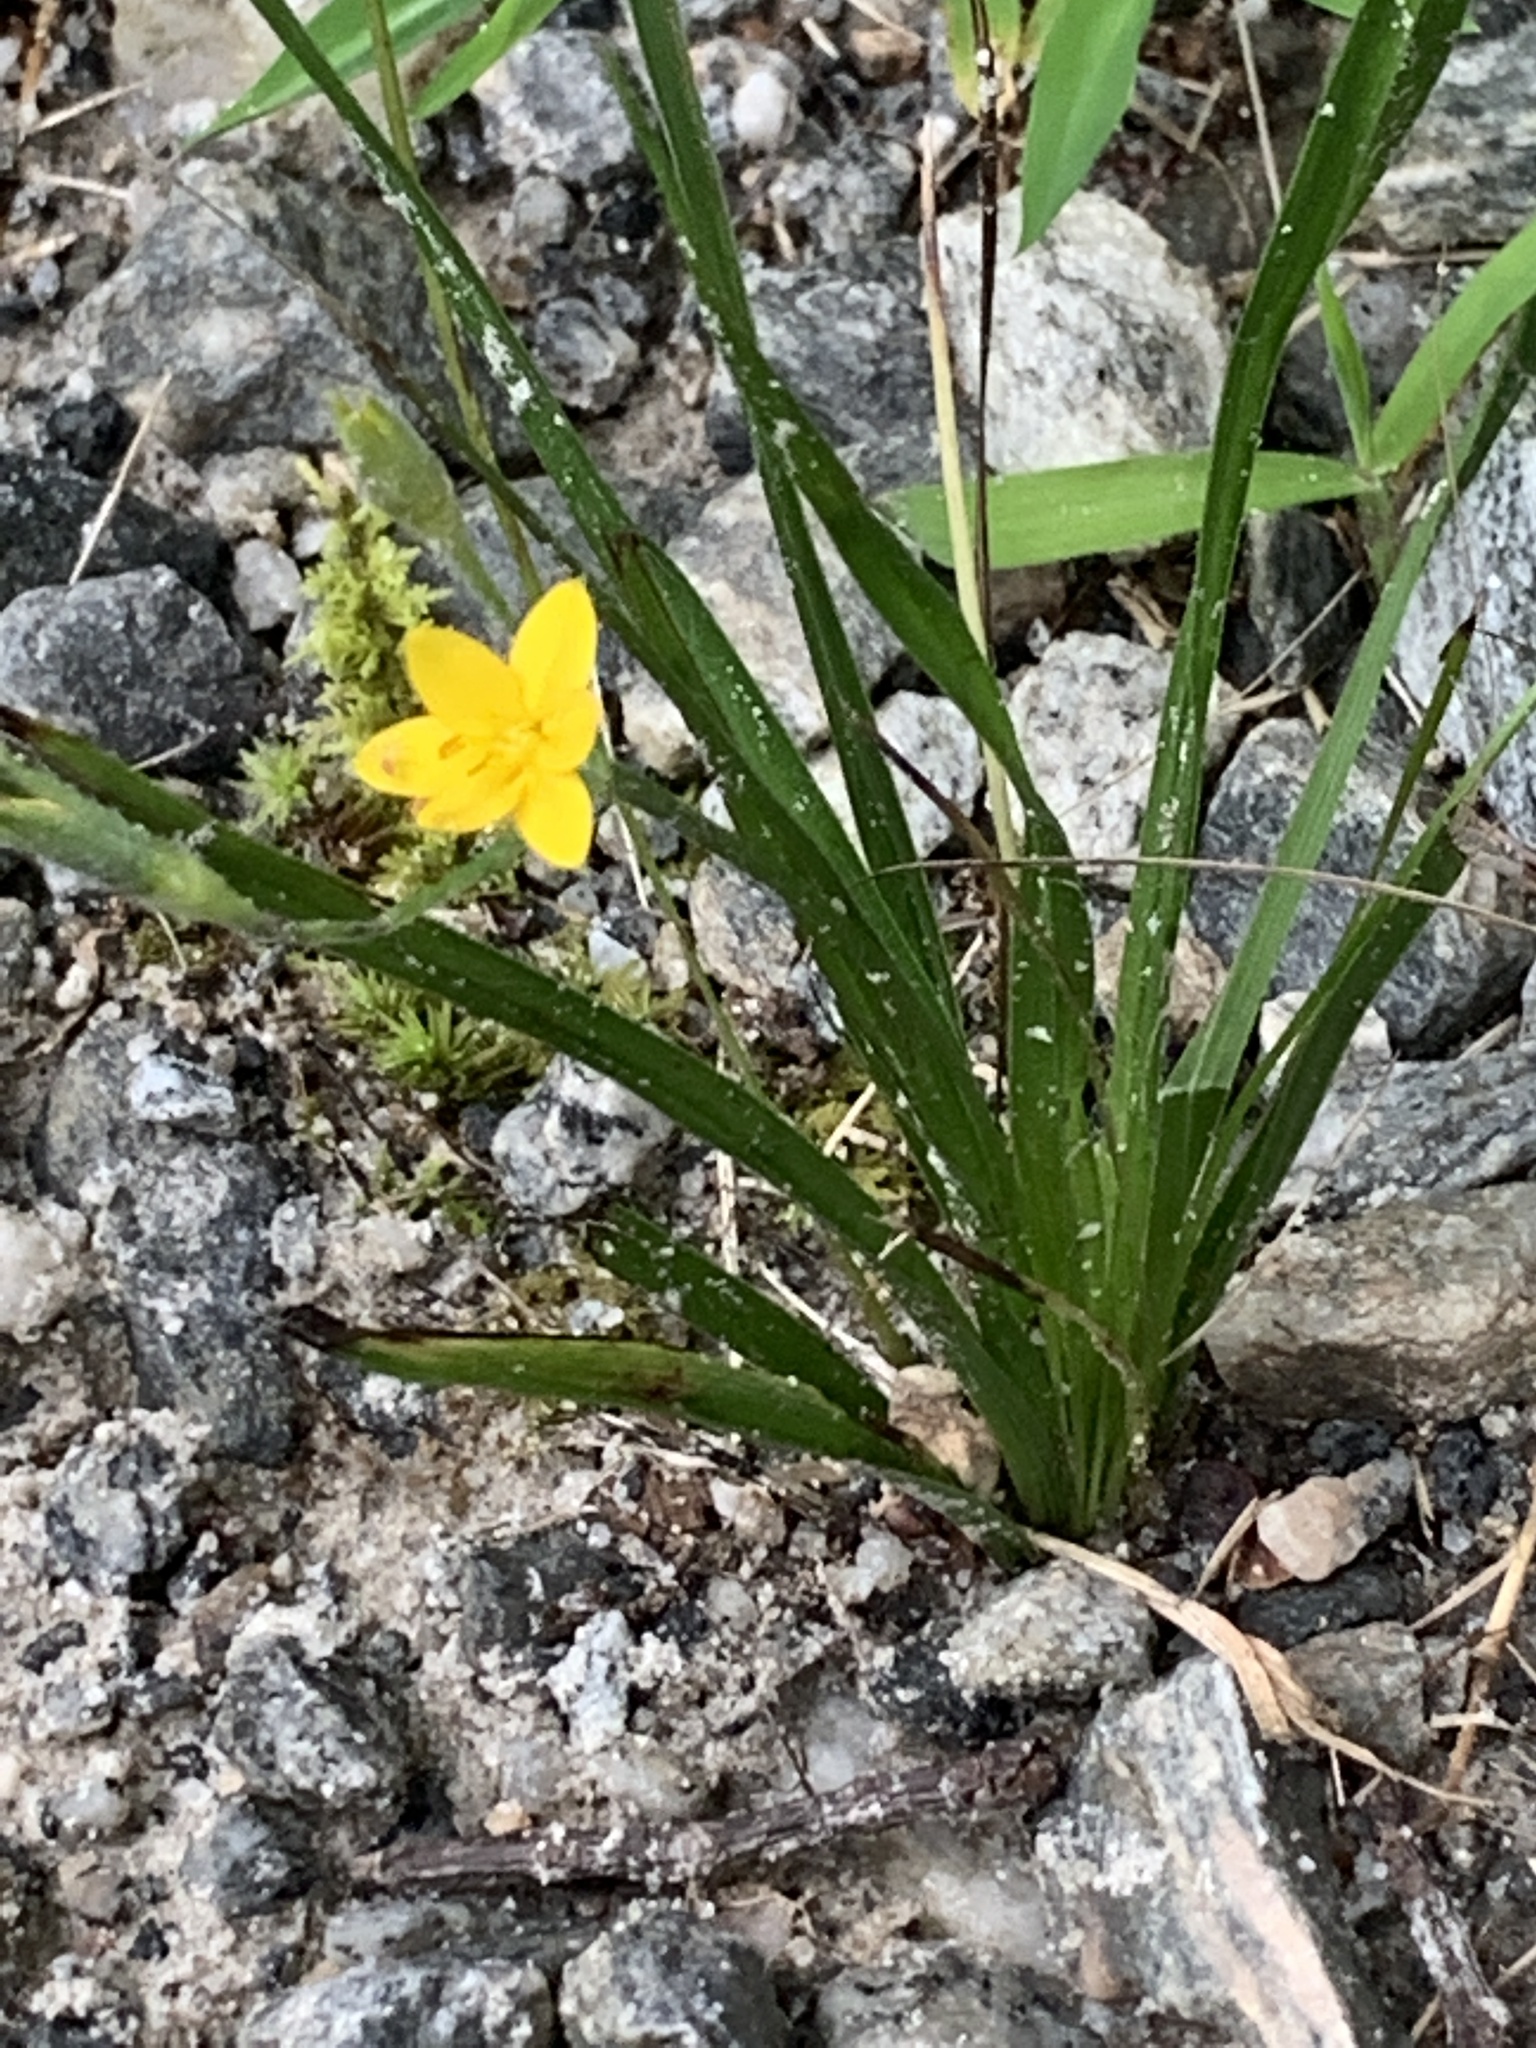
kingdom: Plantae
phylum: Tracheophyta
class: Liliopsida
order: Asparagales
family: Hypoxidaceae
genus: Hypoxis
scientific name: Hypoxis hirsuta
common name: Common goldstar
